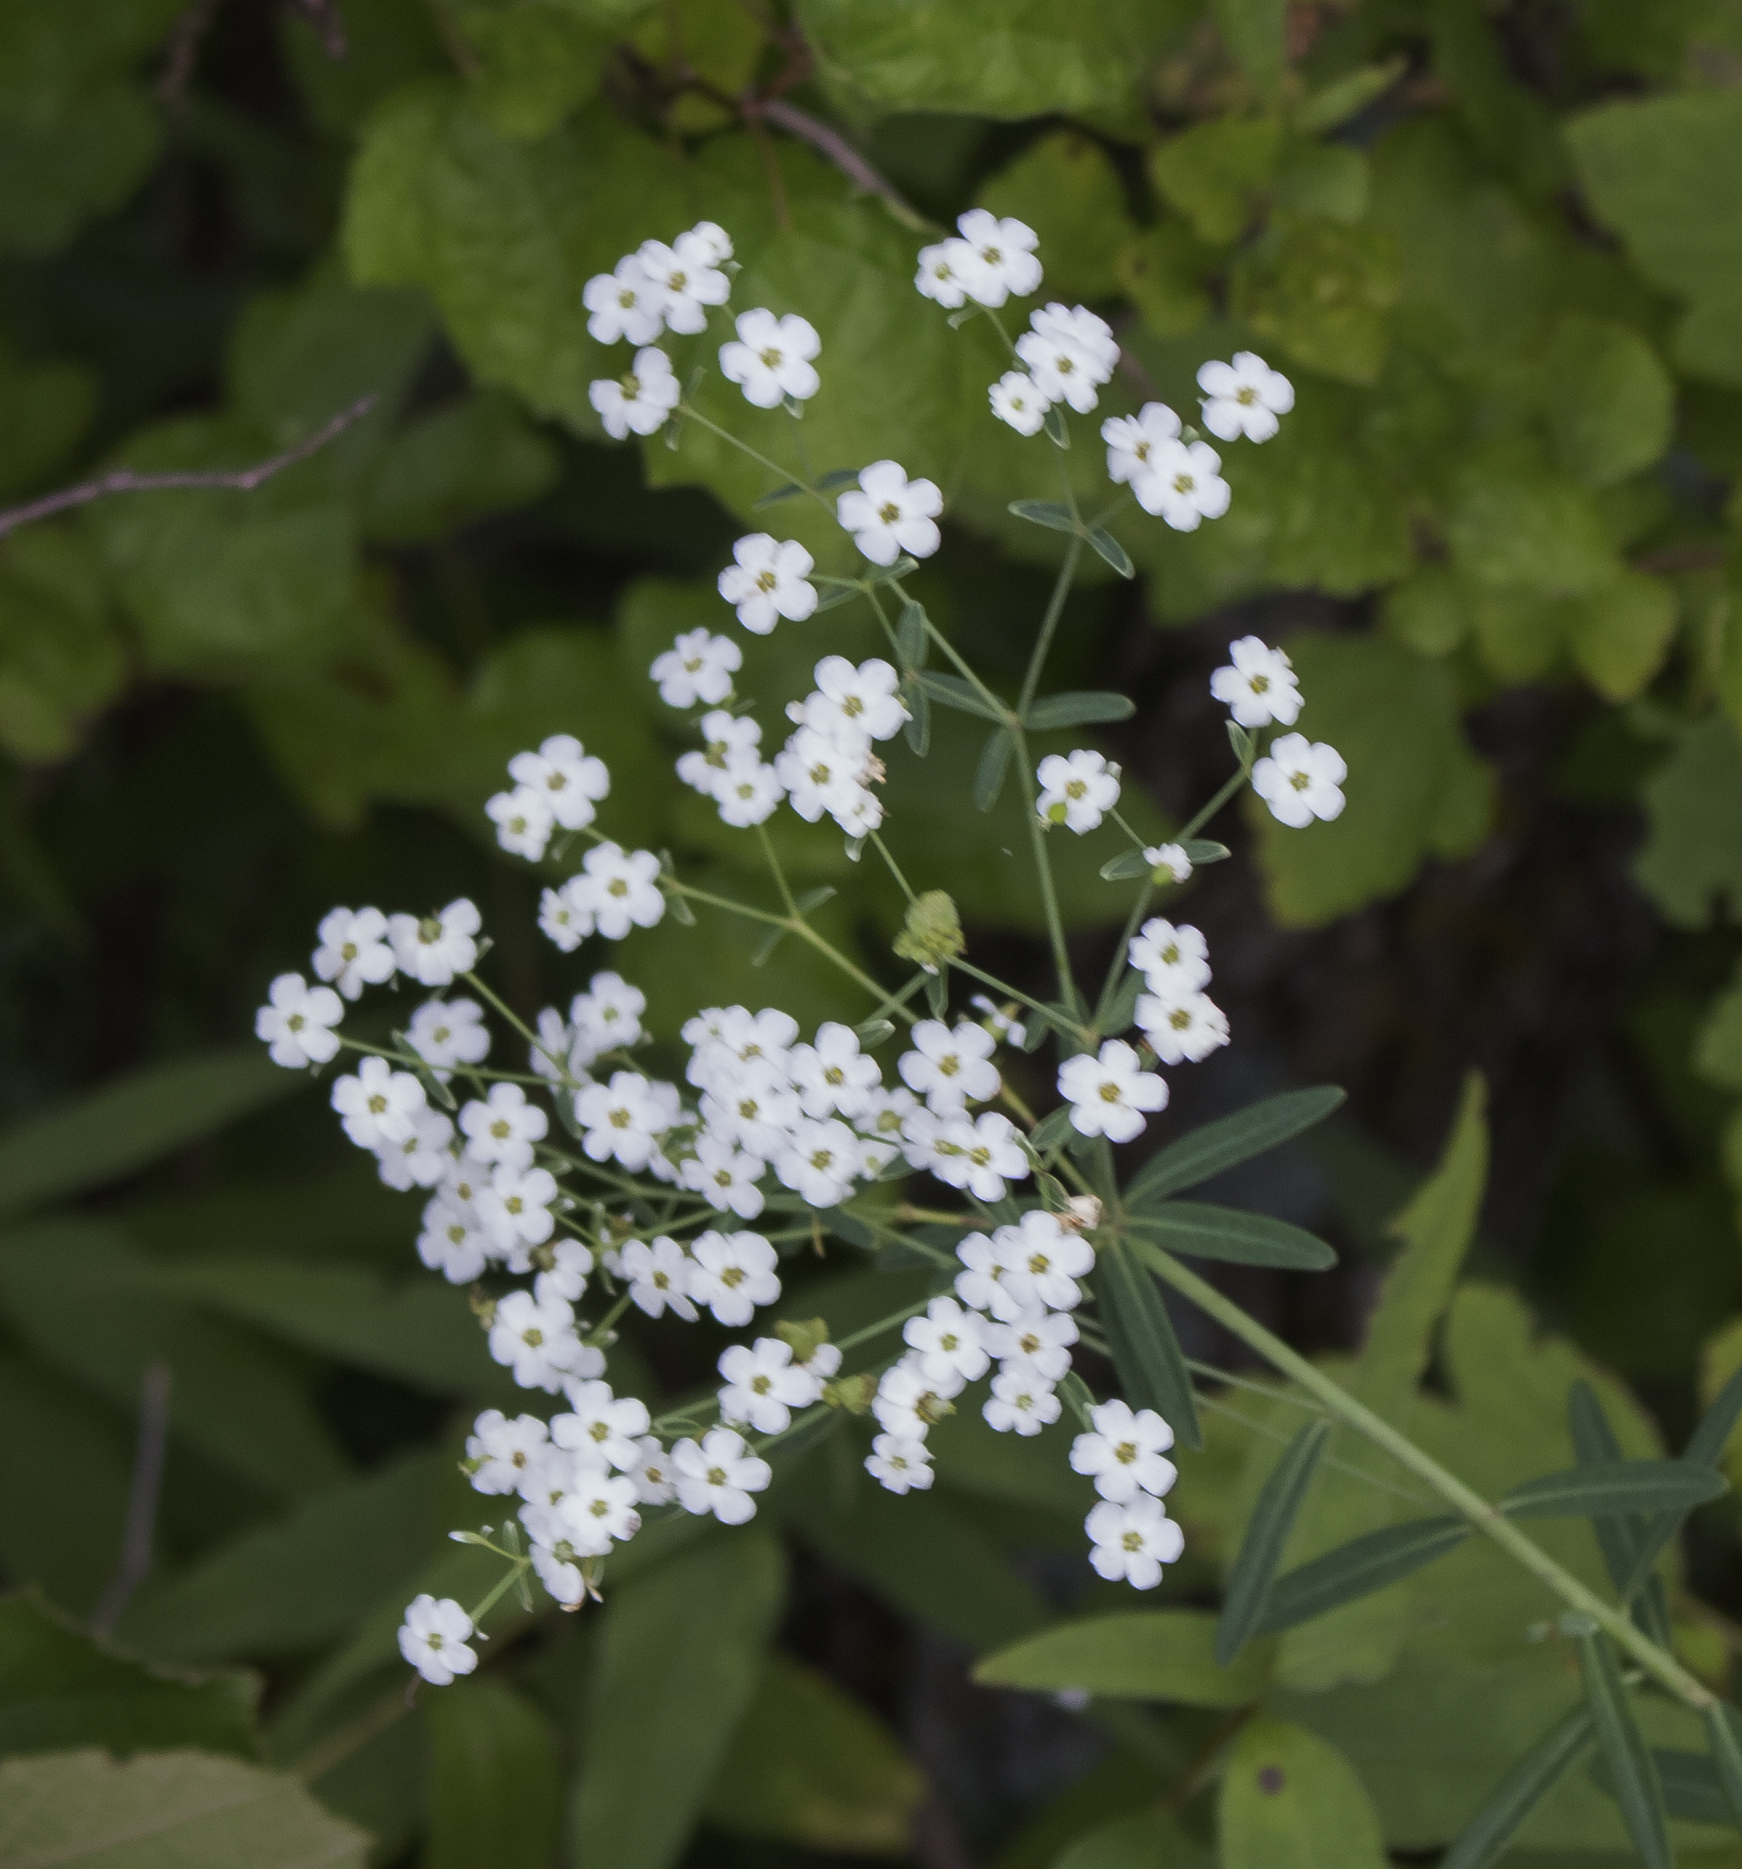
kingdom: Plantae
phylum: Tracheophyta
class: Magnoliopsida
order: Malpighiales
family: Euphorbiaceae
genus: Euphorbia
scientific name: Euphorbia corollata
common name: Flowering spurge
